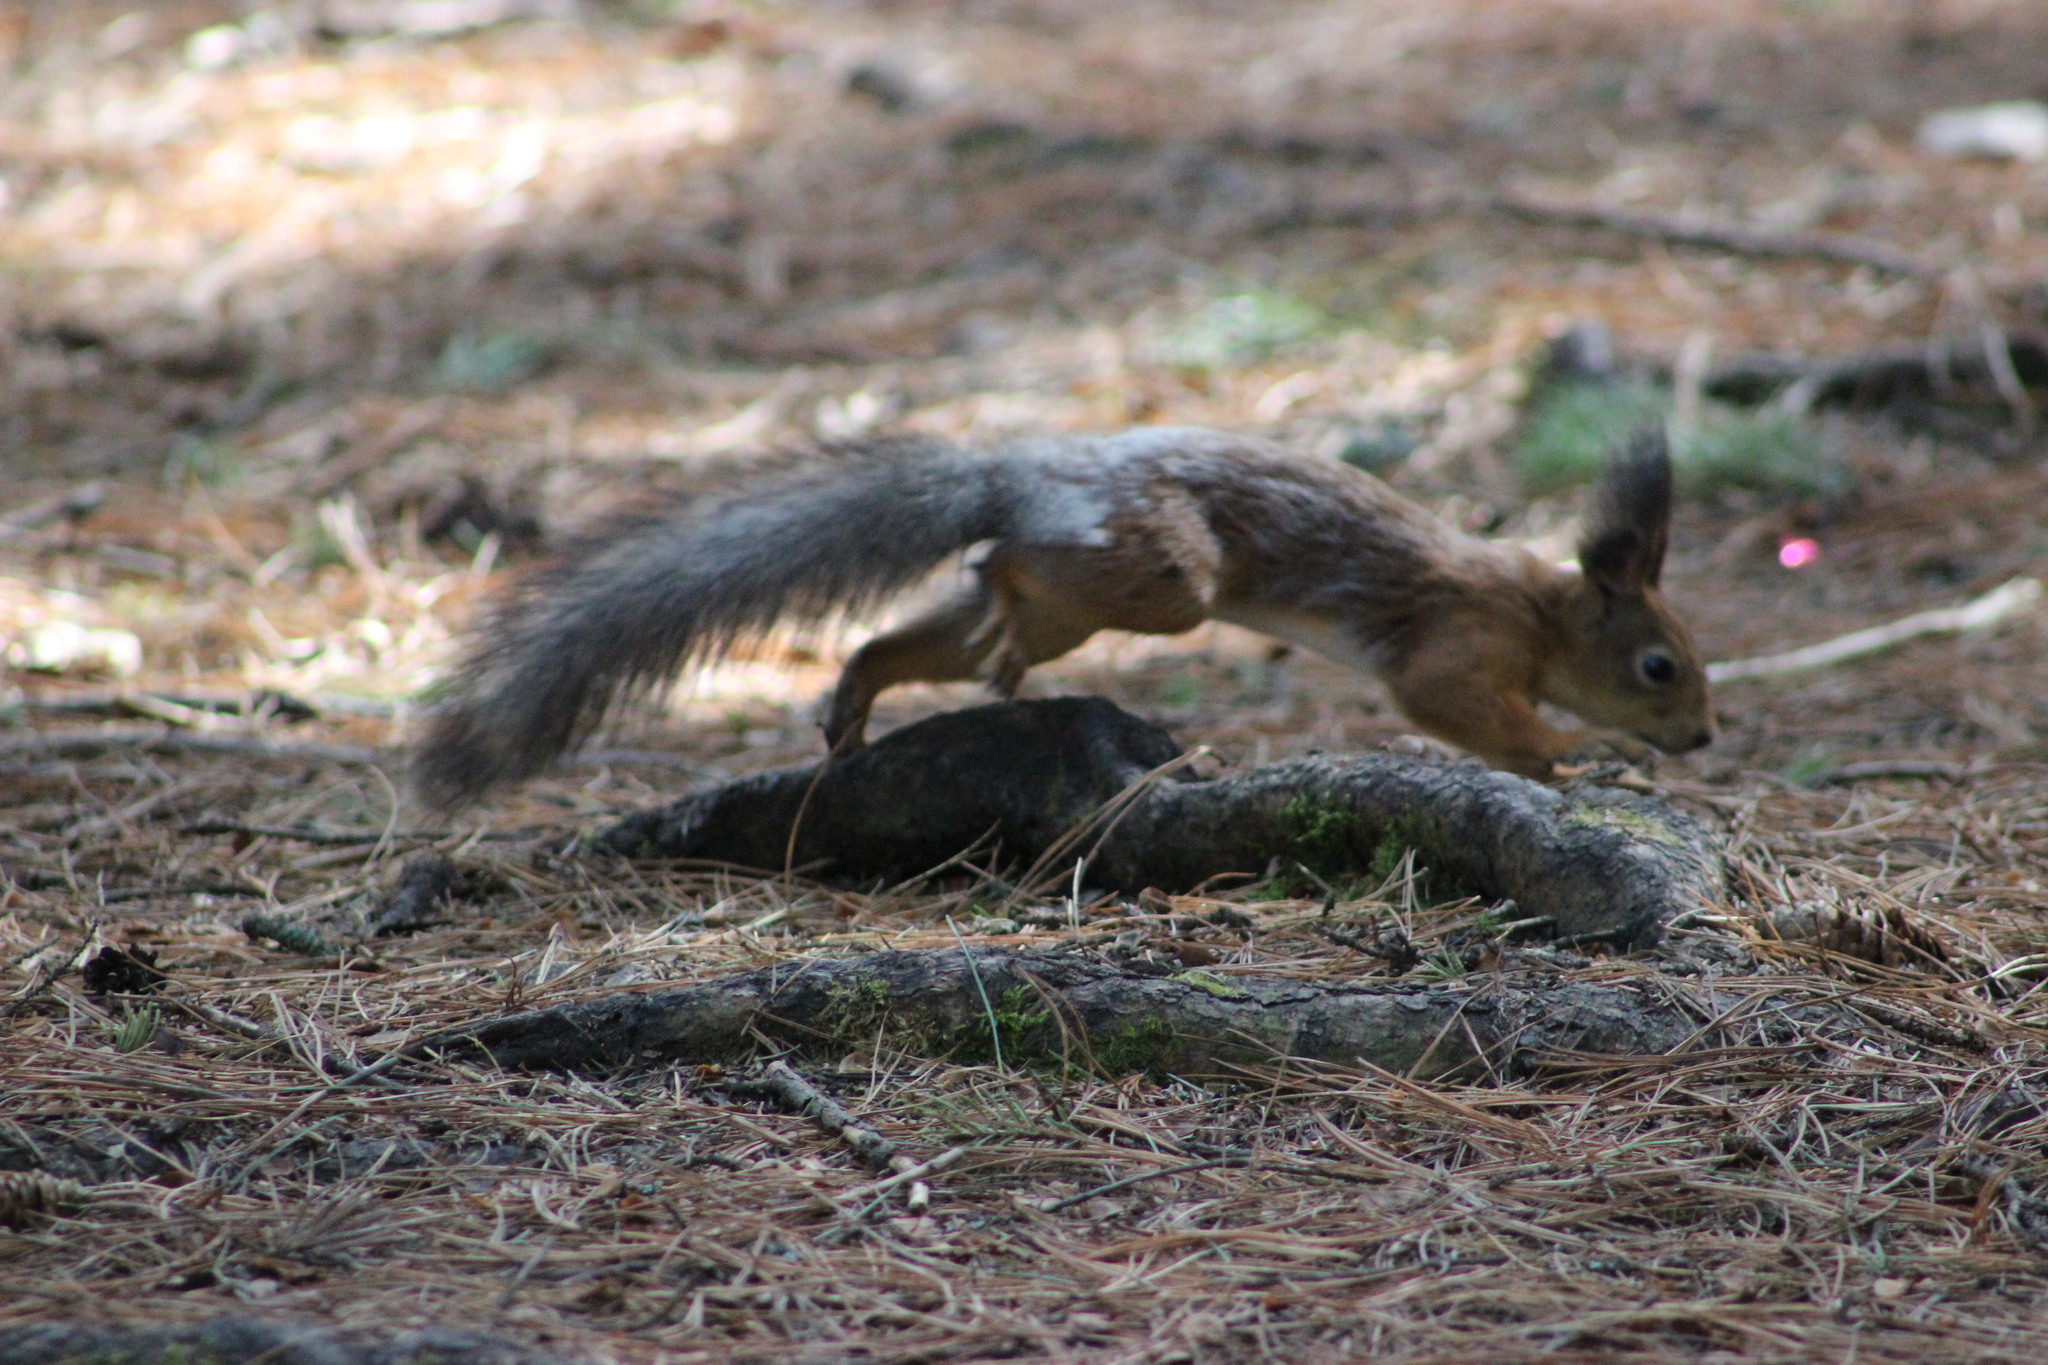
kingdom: Animalia
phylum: Chordata
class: Mammalia
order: Rodentia
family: Sciuridae
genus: Sciurus
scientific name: Sciurus vulgaris
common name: Eurasian red squirrel
